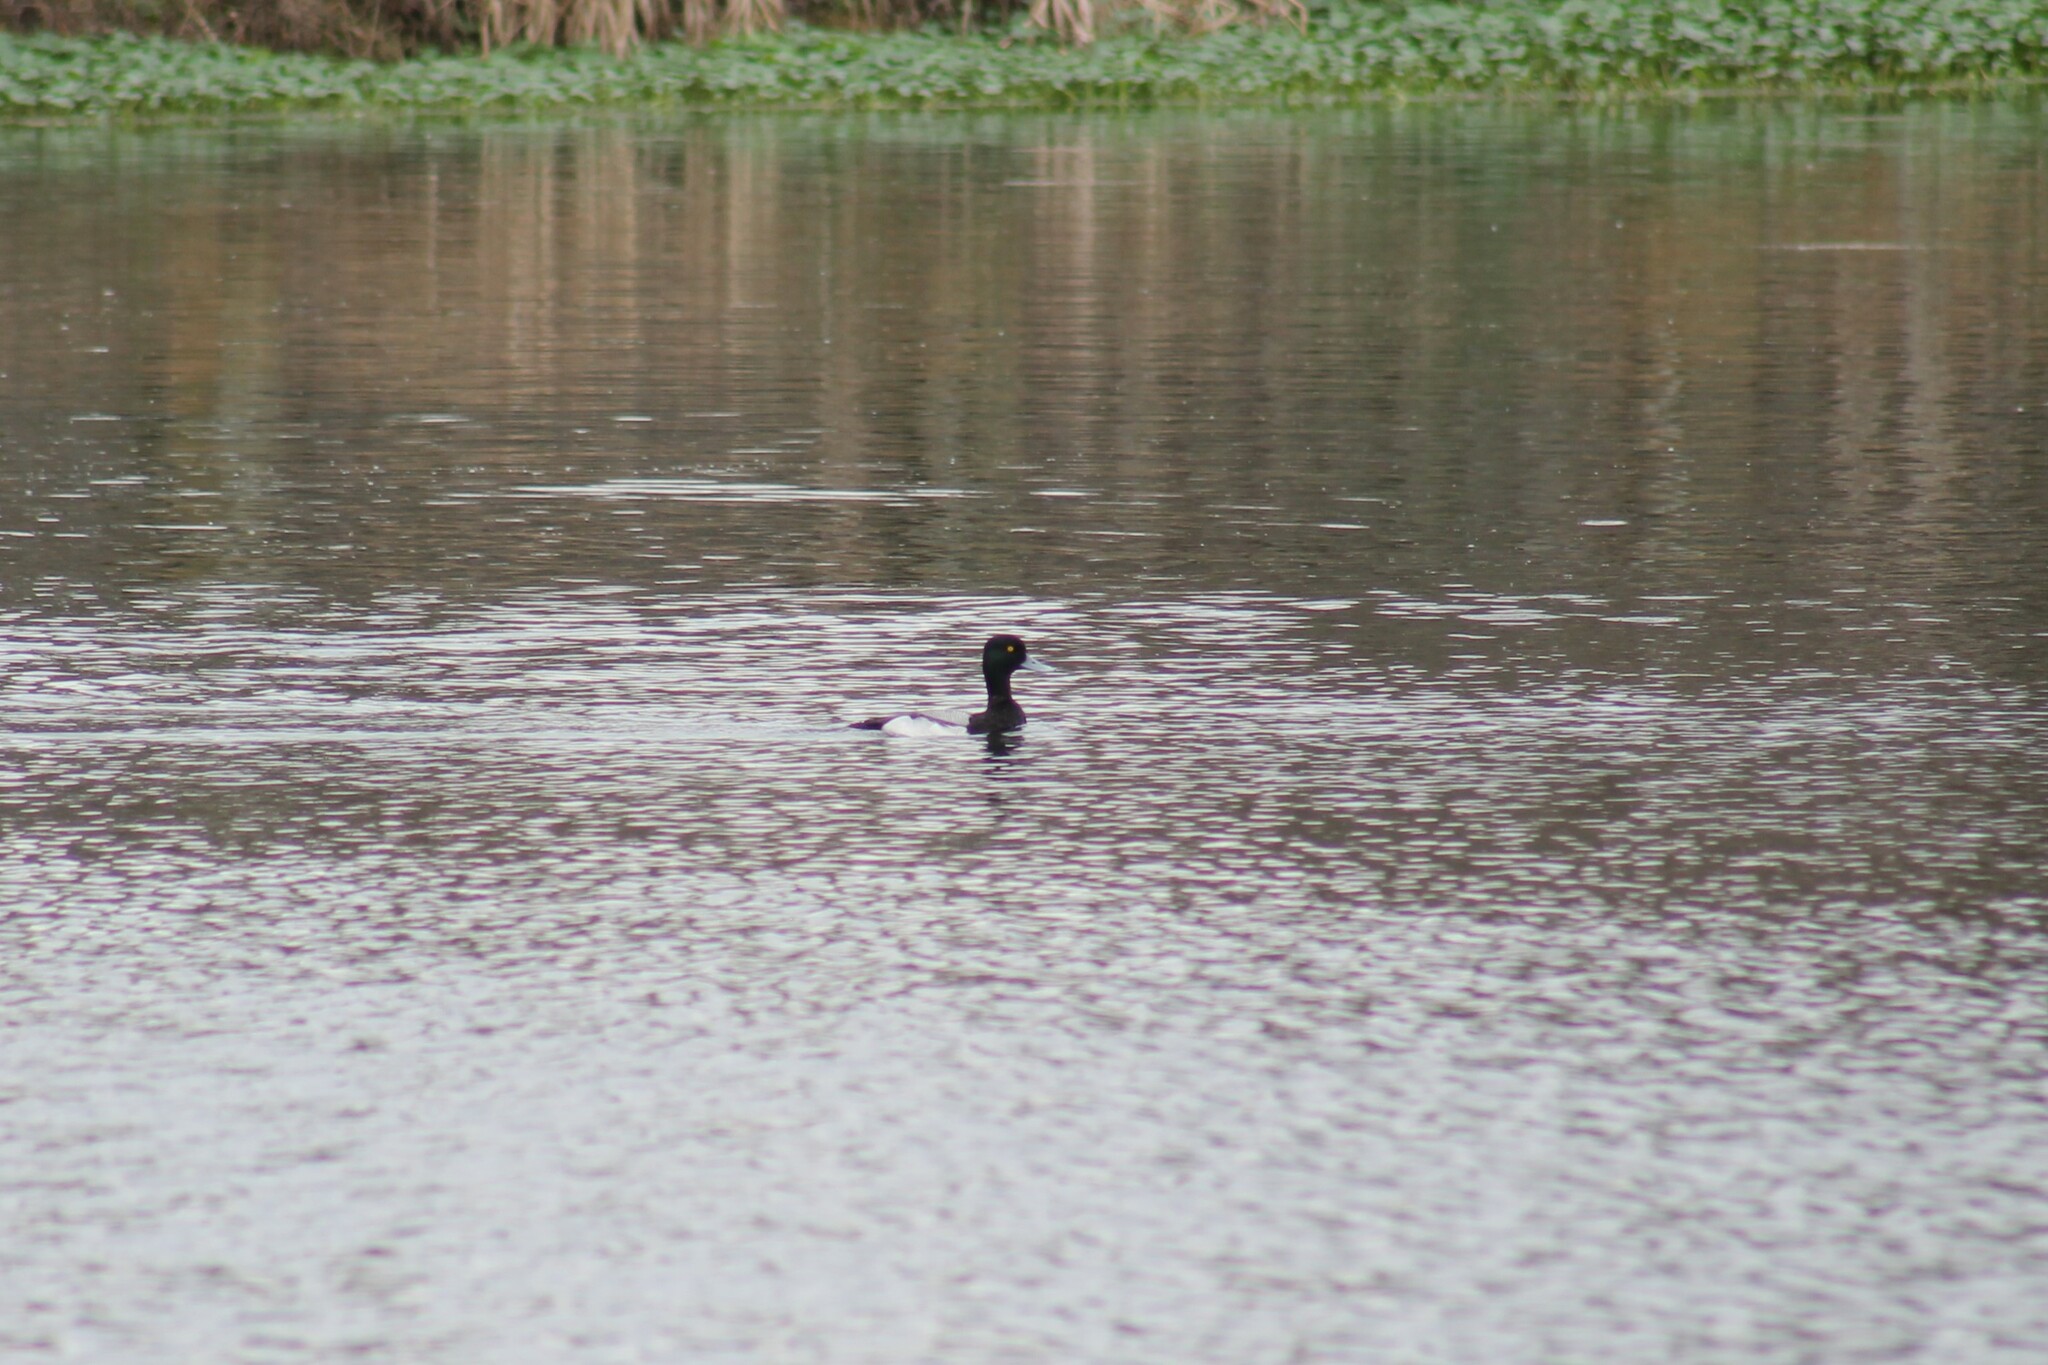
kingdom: Animalia
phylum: Chordata
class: Aves
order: Anseriformes
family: Anatidae
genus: Aythya
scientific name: Aythya affinis
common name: Lesser scaup
